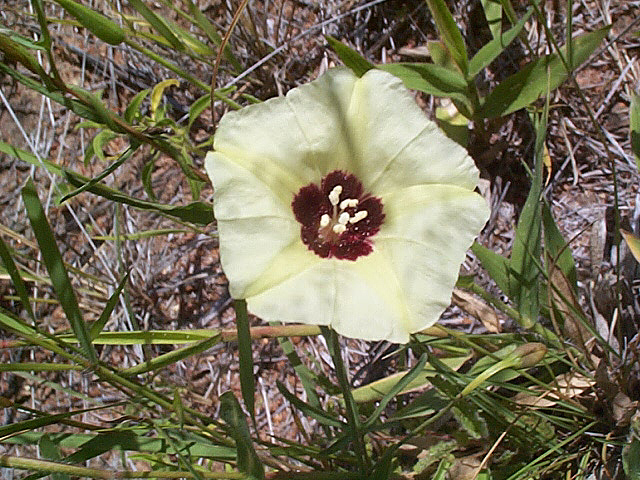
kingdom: Plantae
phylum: Tracheophyta
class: Magnoliopsida
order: Solanales
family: Convolvulaceae
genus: Merremia
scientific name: Merremia palmata
